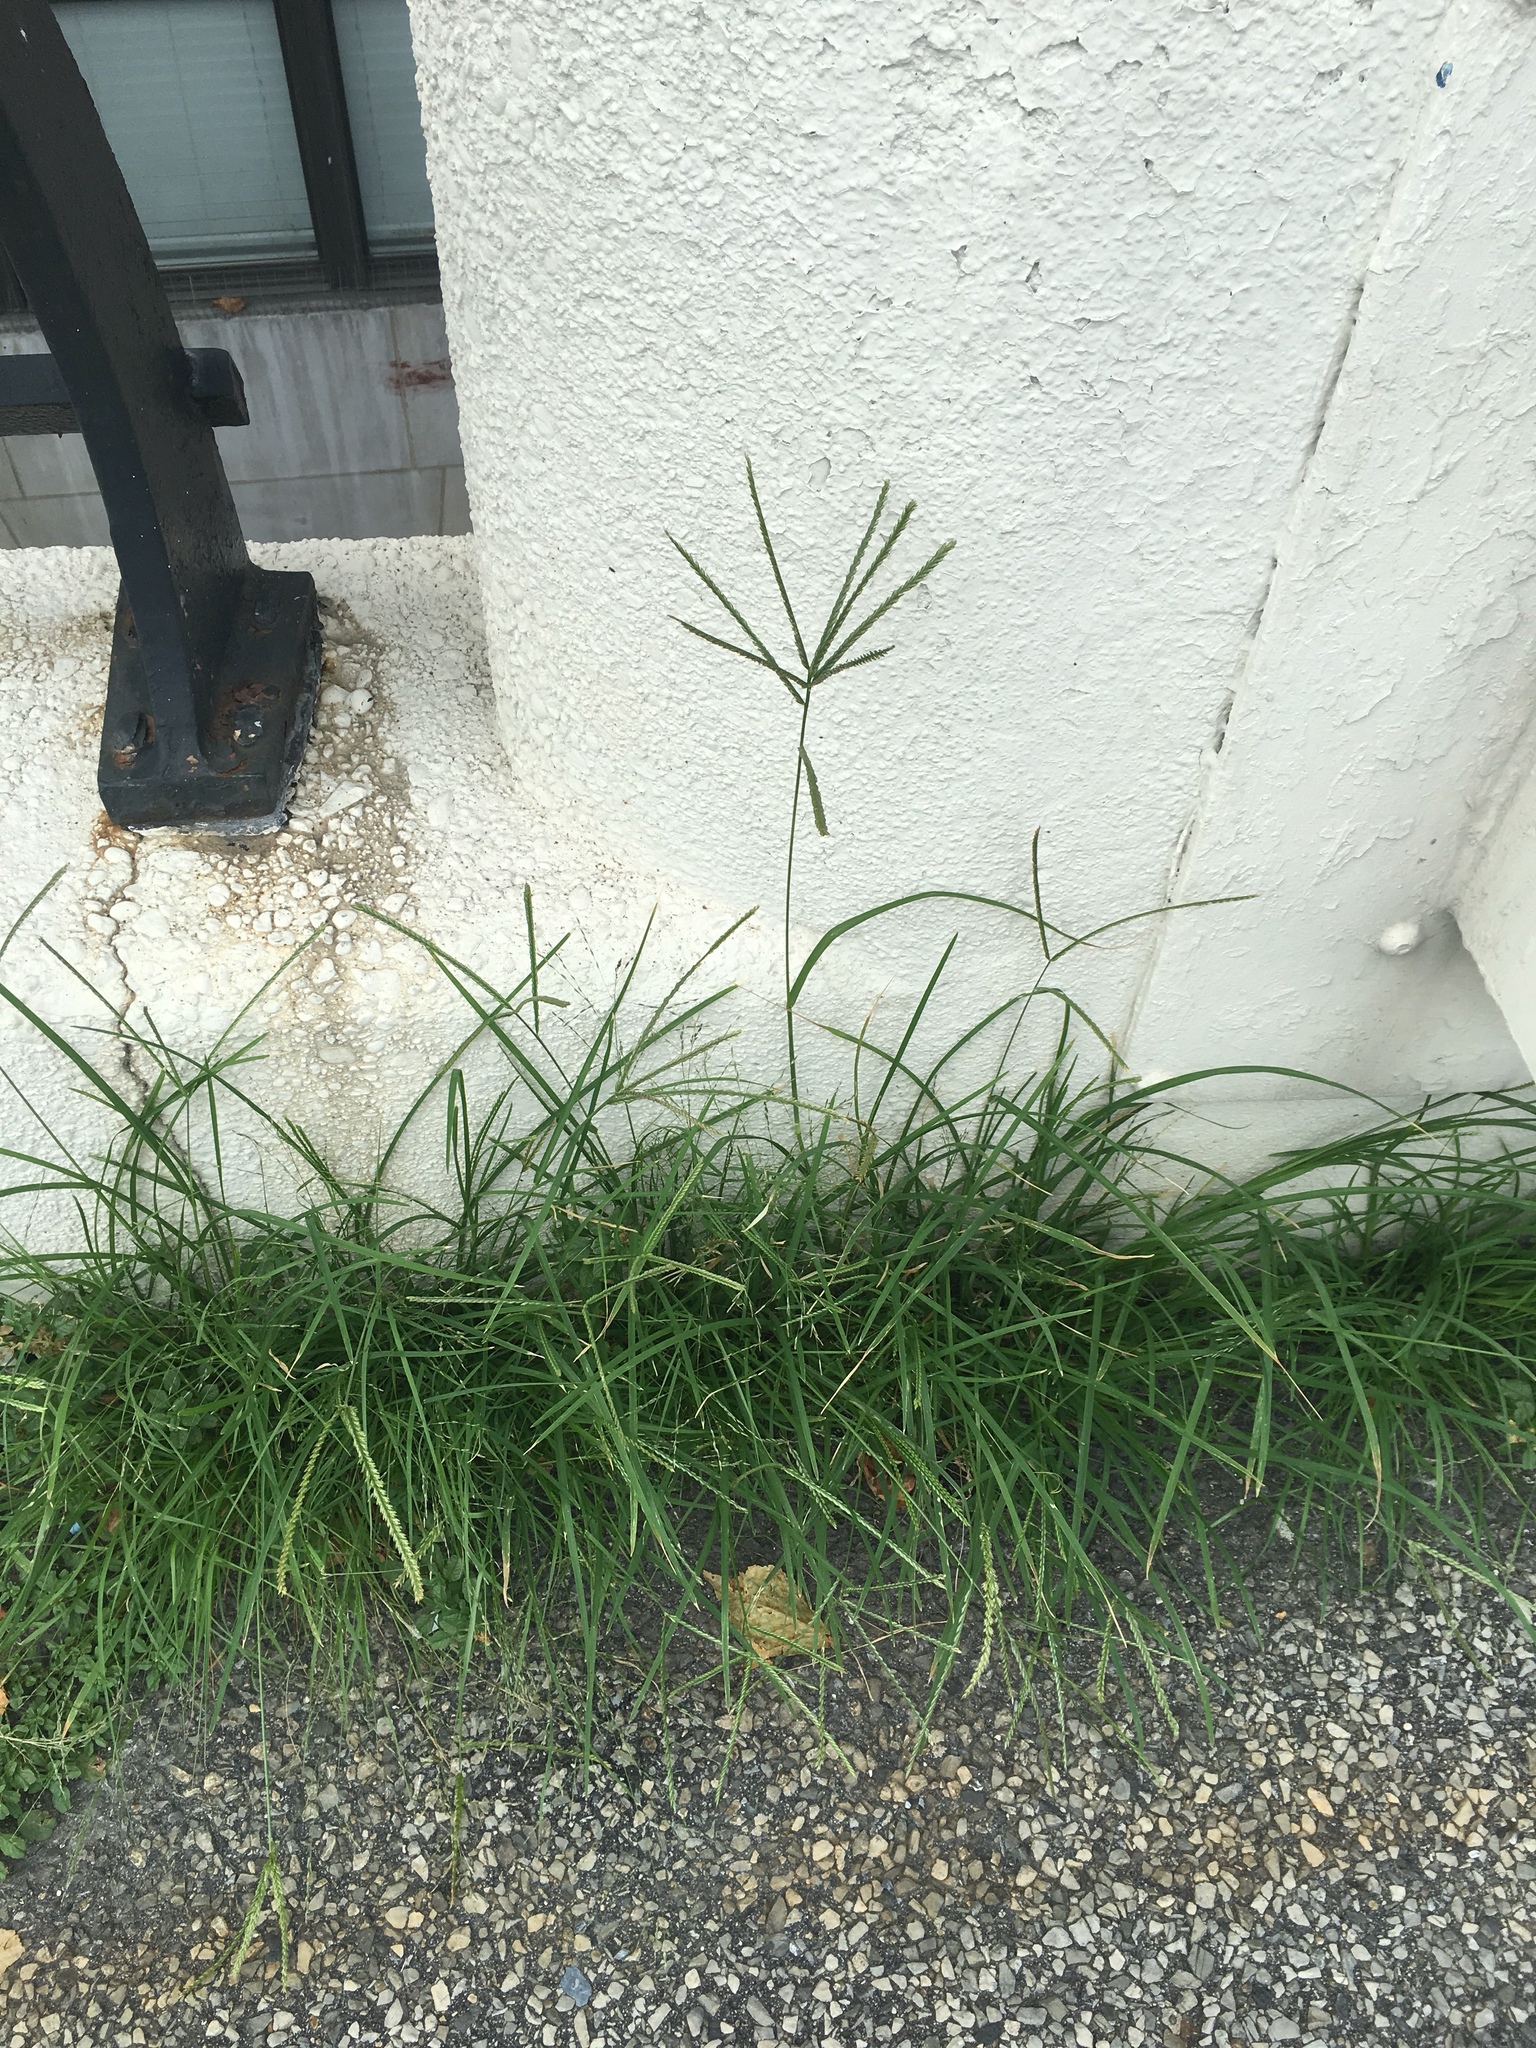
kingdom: Plantae
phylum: Tracheophyta
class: Liliopsida
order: Poales
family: Poaceae
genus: Eleusine
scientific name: Eleusine indica
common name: Yard-grass
